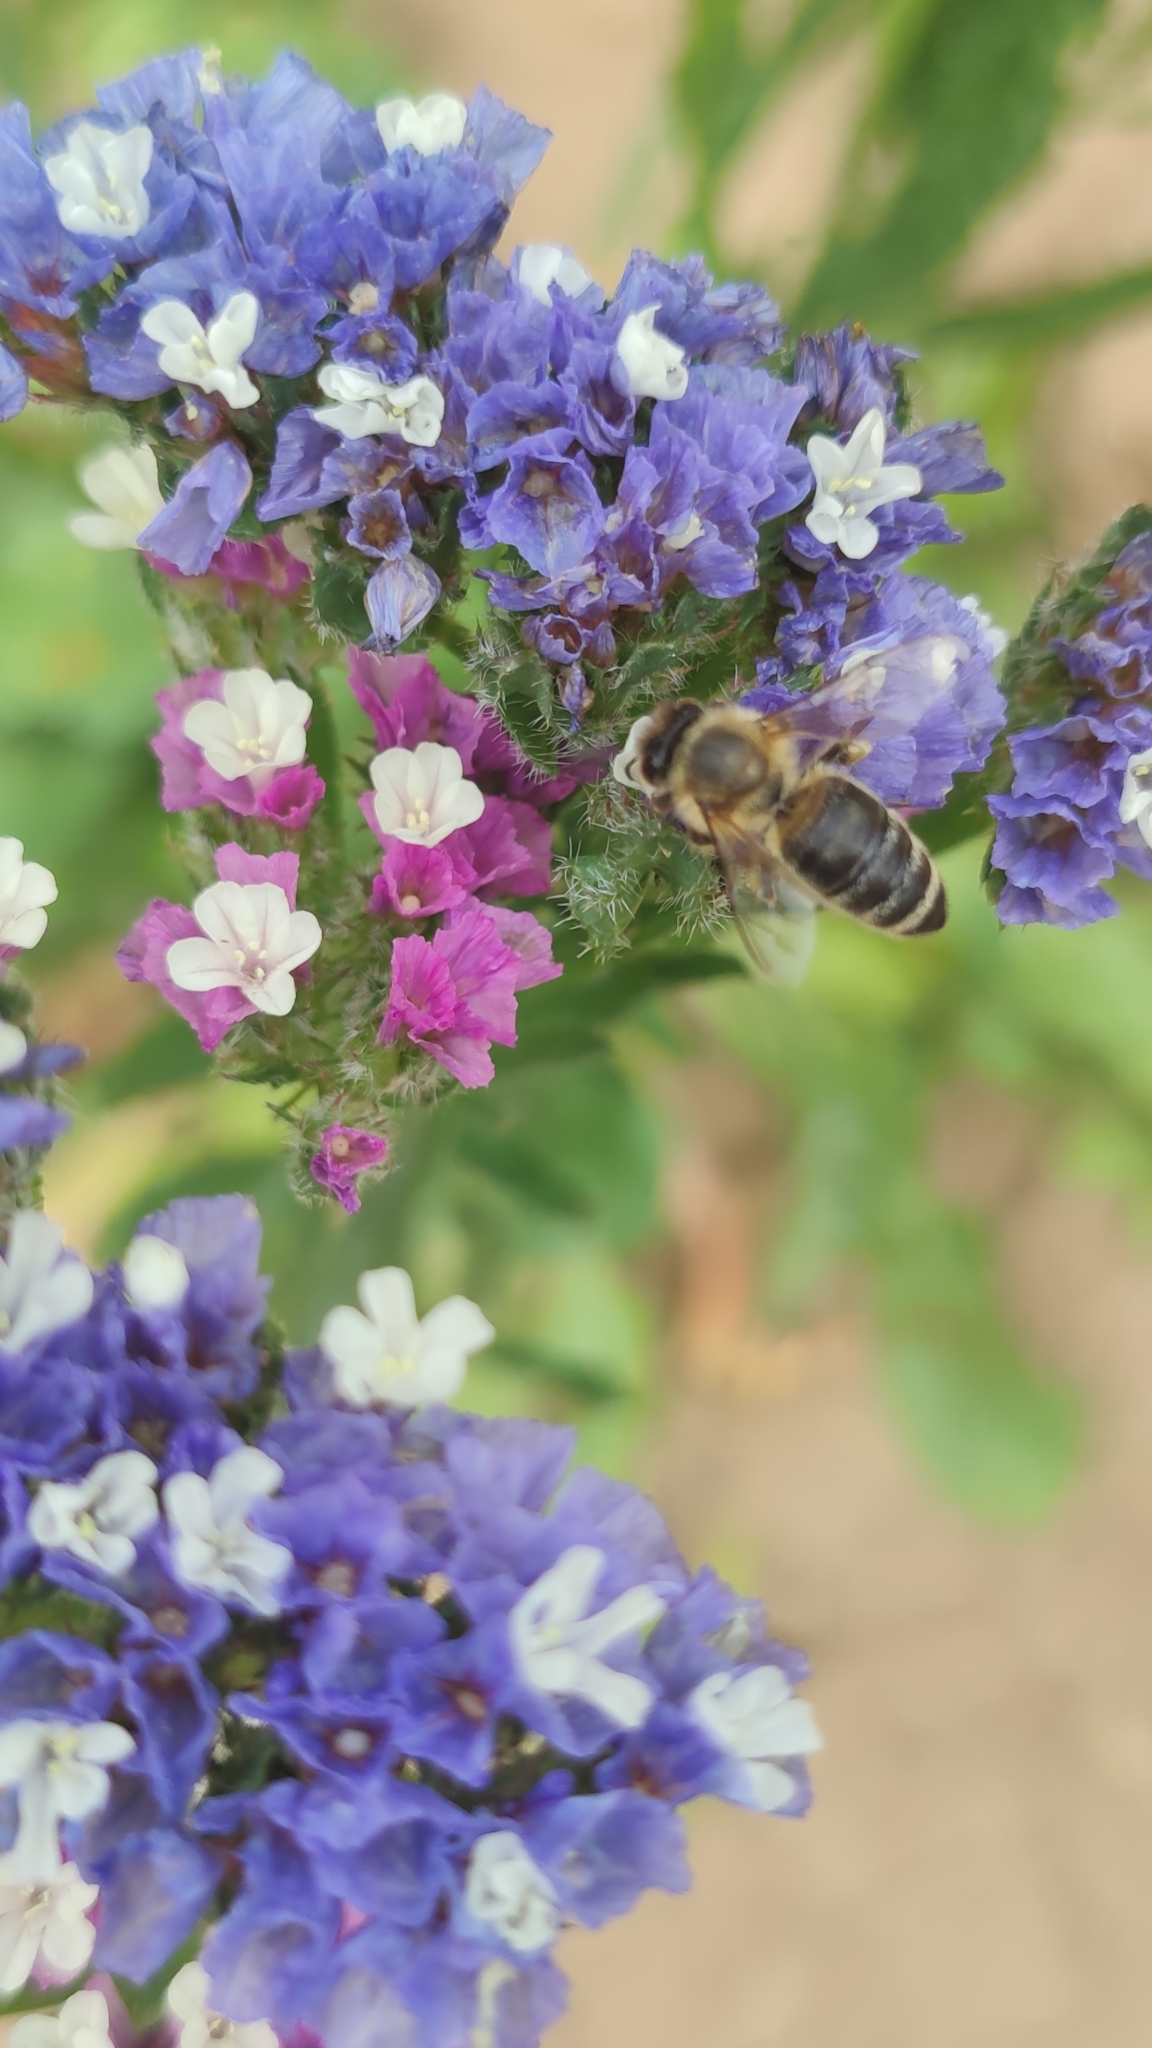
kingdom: Animalia
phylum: Arthropoda
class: Insecta
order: Hymenoptera
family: Apidae
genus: Apis
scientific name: Apis mellifera
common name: Honey bee
